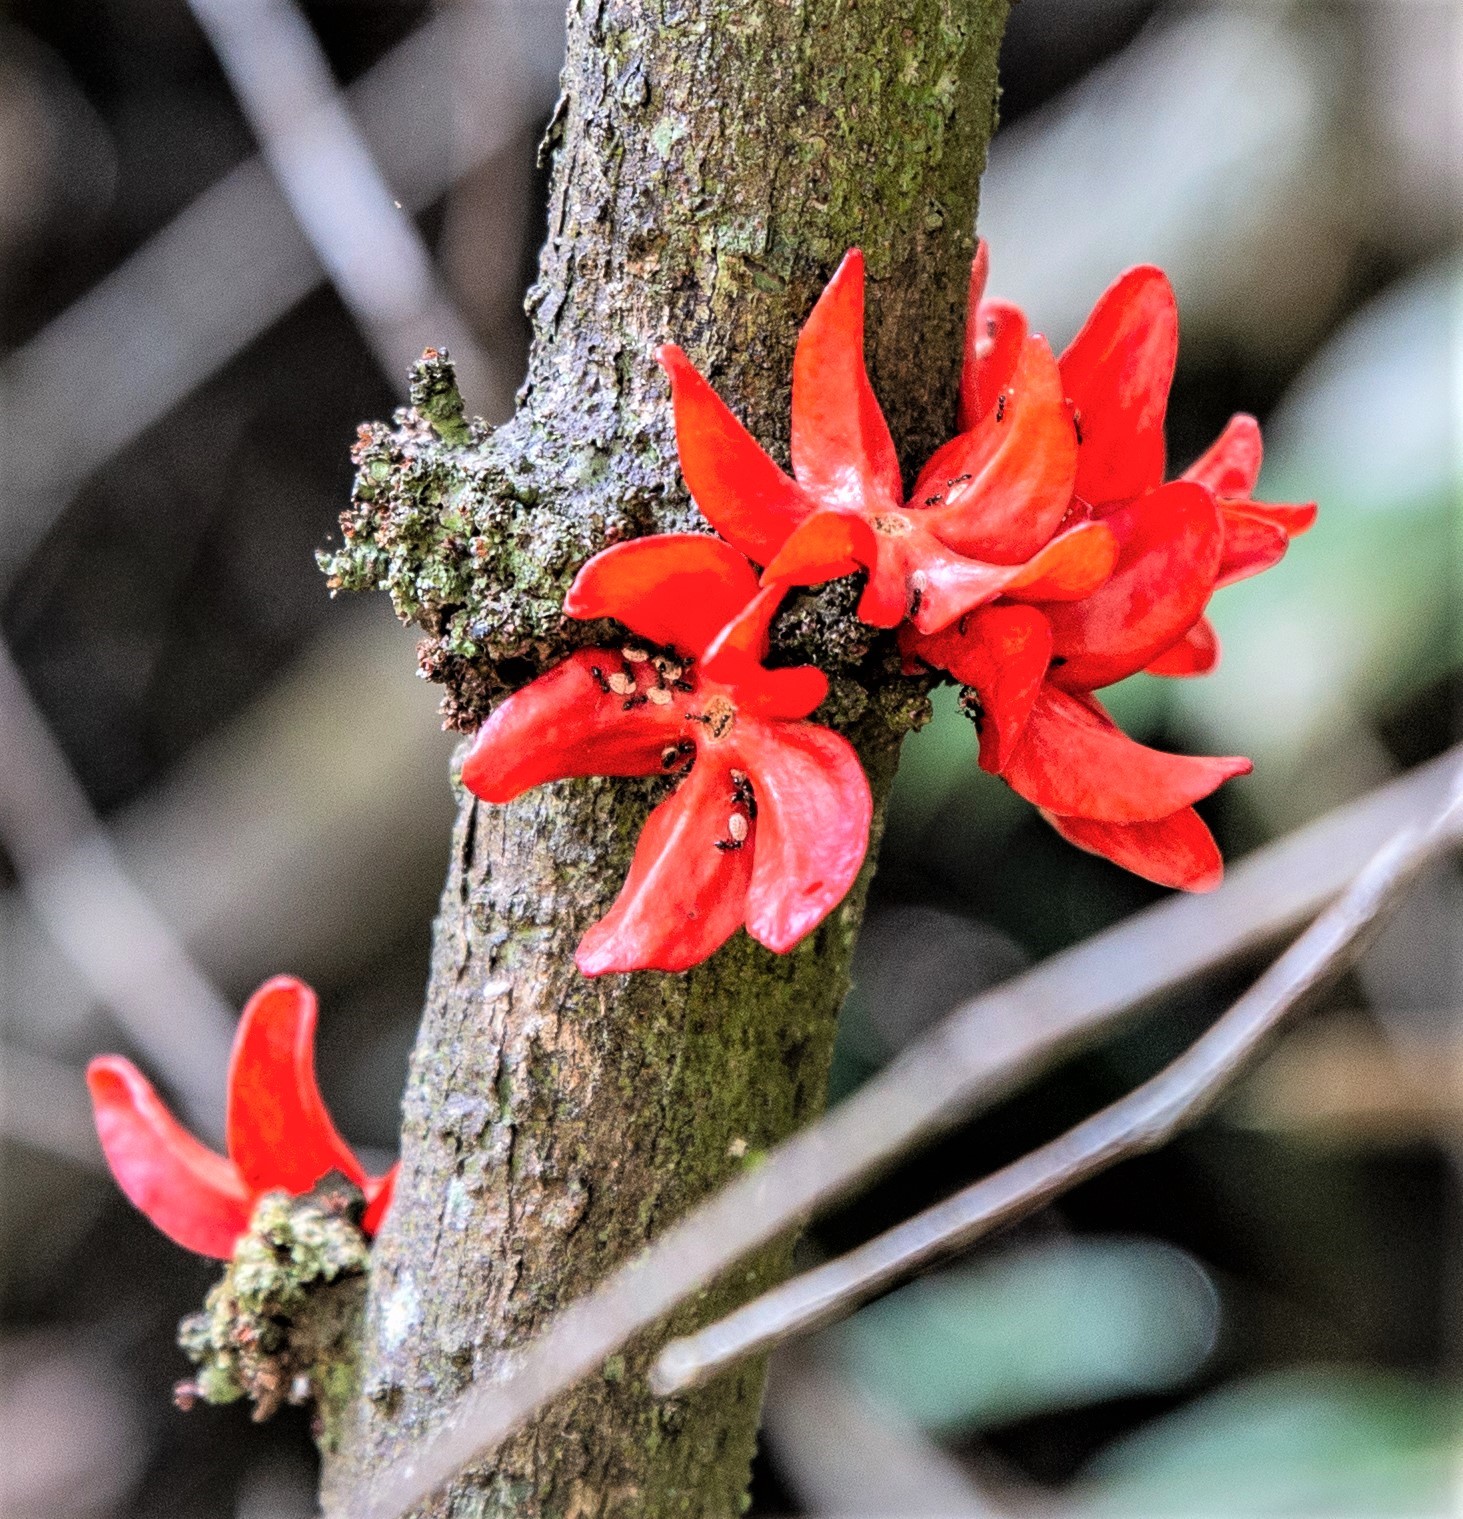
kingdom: Plantae
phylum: Tracheophyta
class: Magnoliopsida
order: Santalales
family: Erythropalaceae
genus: Heisteria
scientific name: Heisteria insculpta
